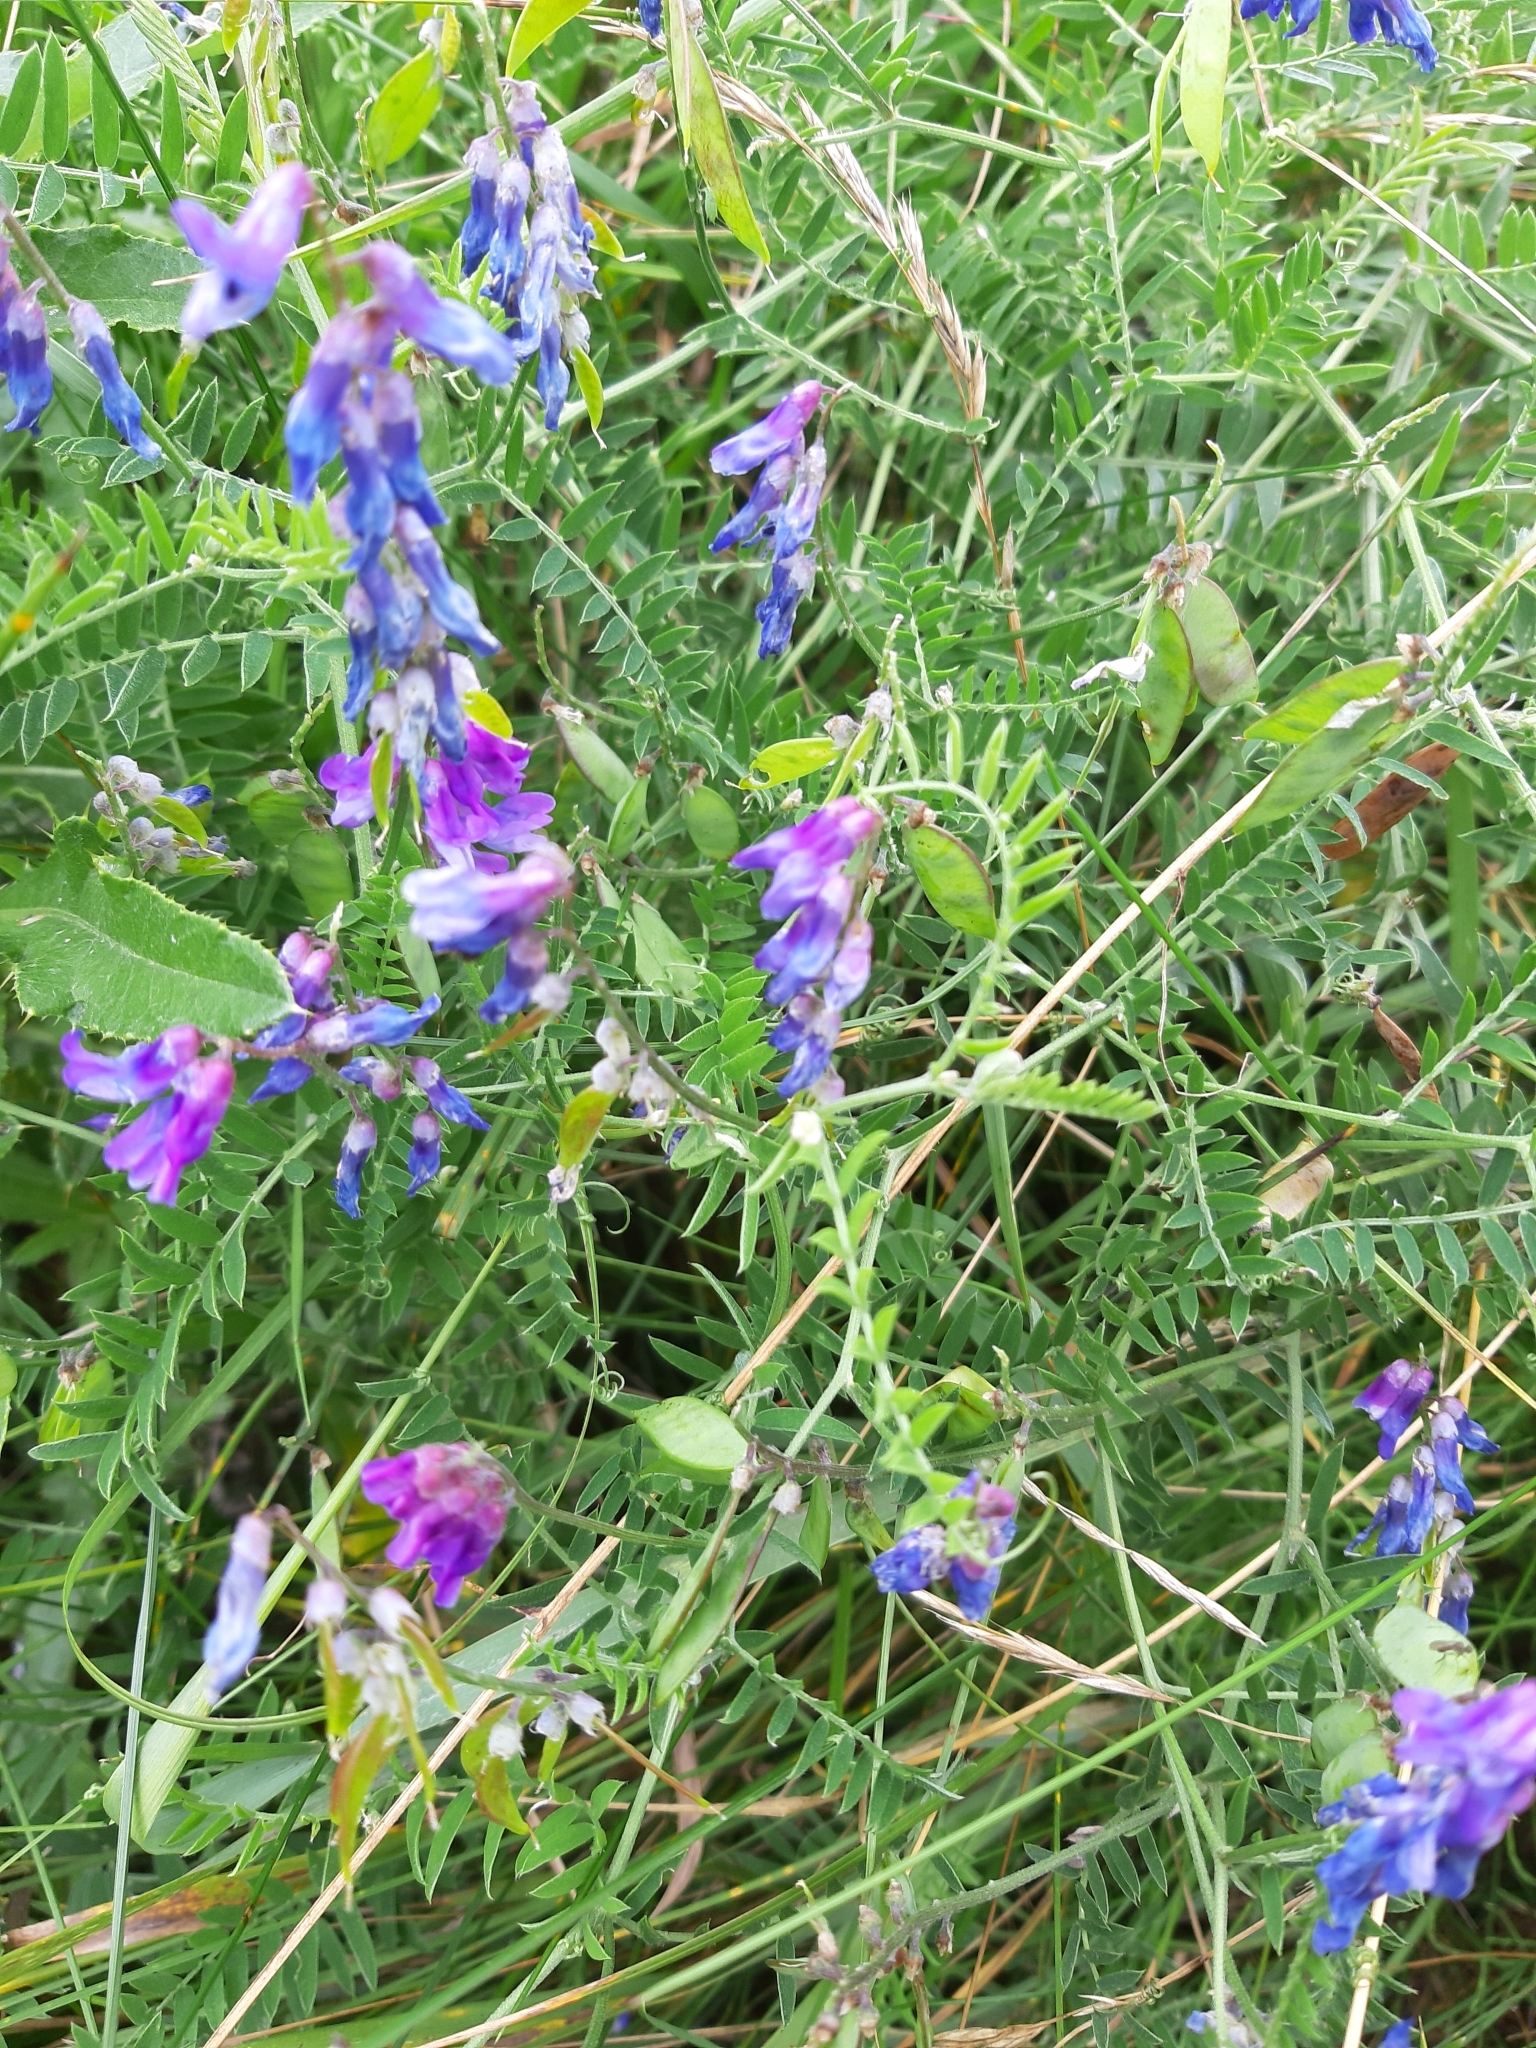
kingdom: Plantae
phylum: Tracheophyta
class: Magnoliopsida
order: Fabales
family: Fabaceae
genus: Vicia
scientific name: Vicia cracca
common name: Bird vetch
